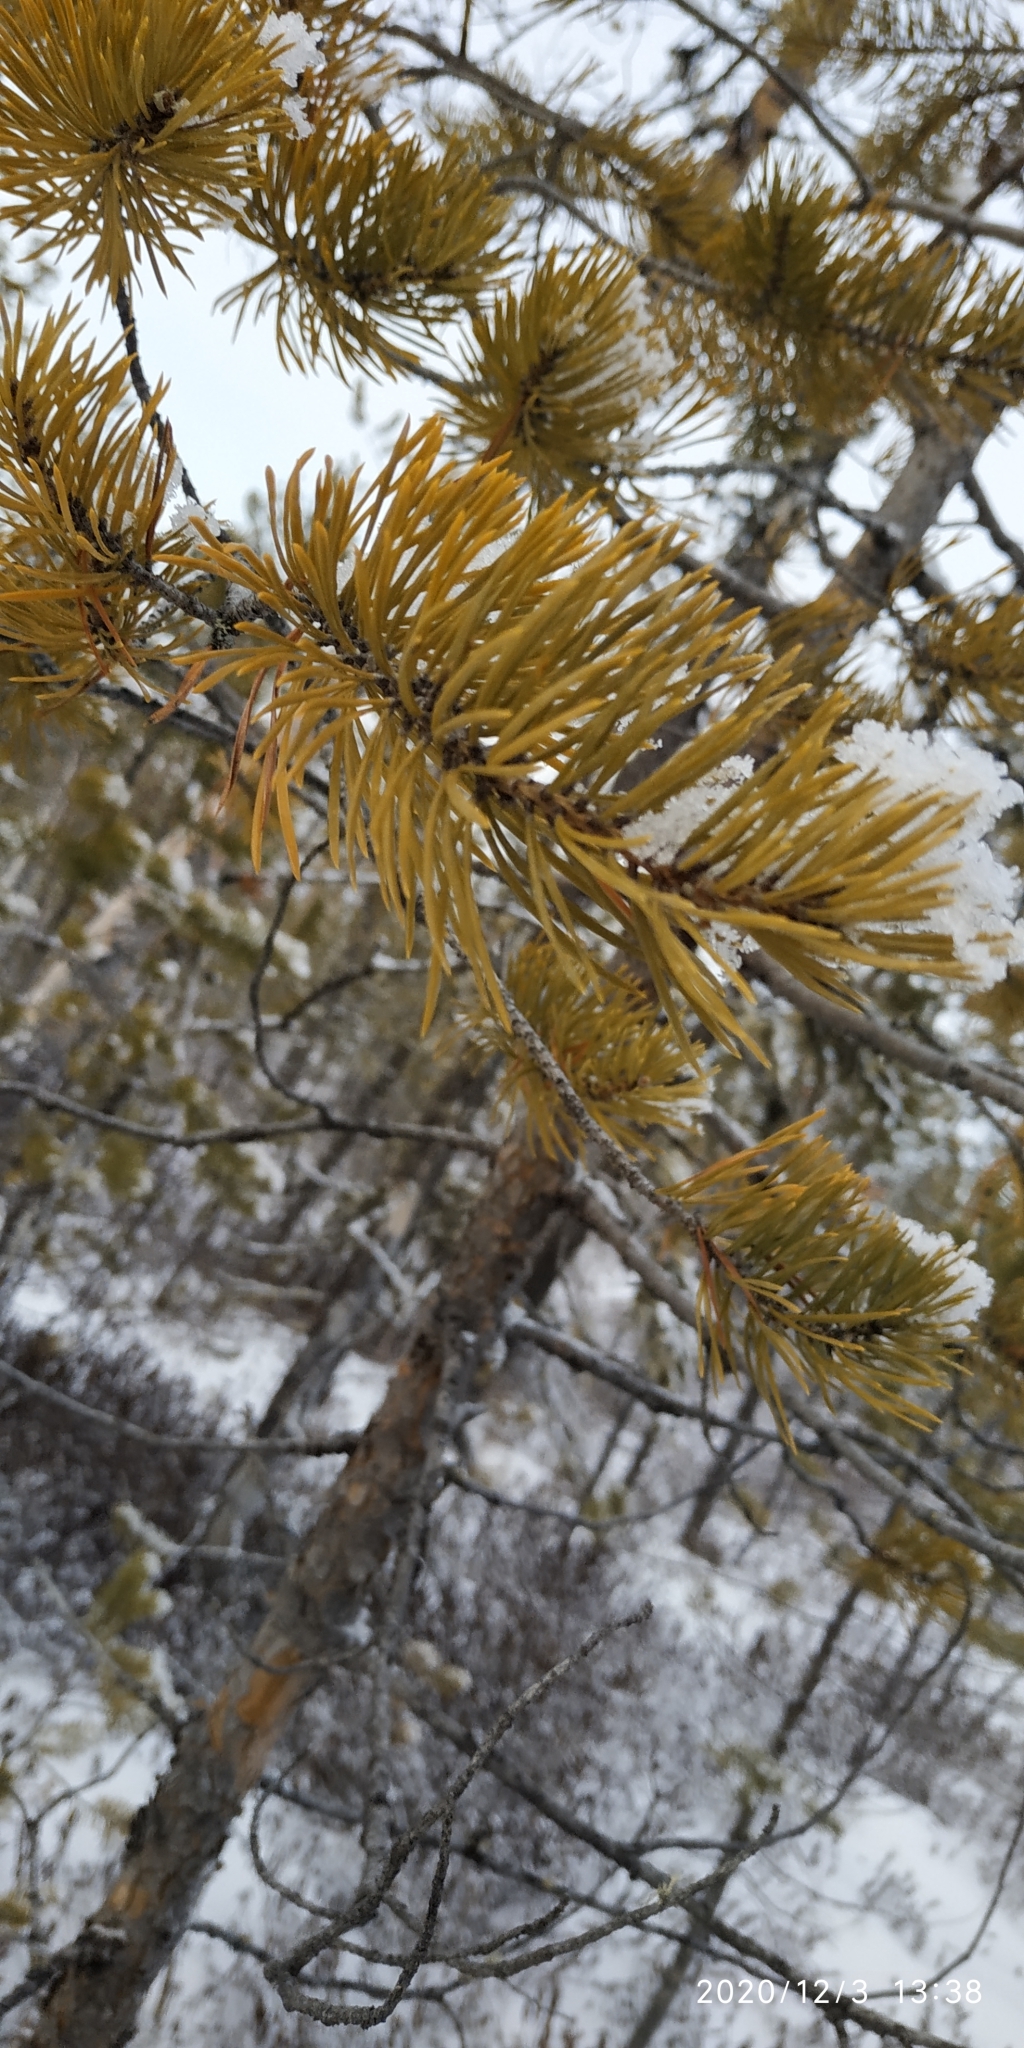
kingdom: Plantae
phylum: Tracheophyta
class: Pinopsida
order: Pinales
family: Pinaceae
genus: Pinus
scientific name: Pinus sylvestris
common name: Scots pine
